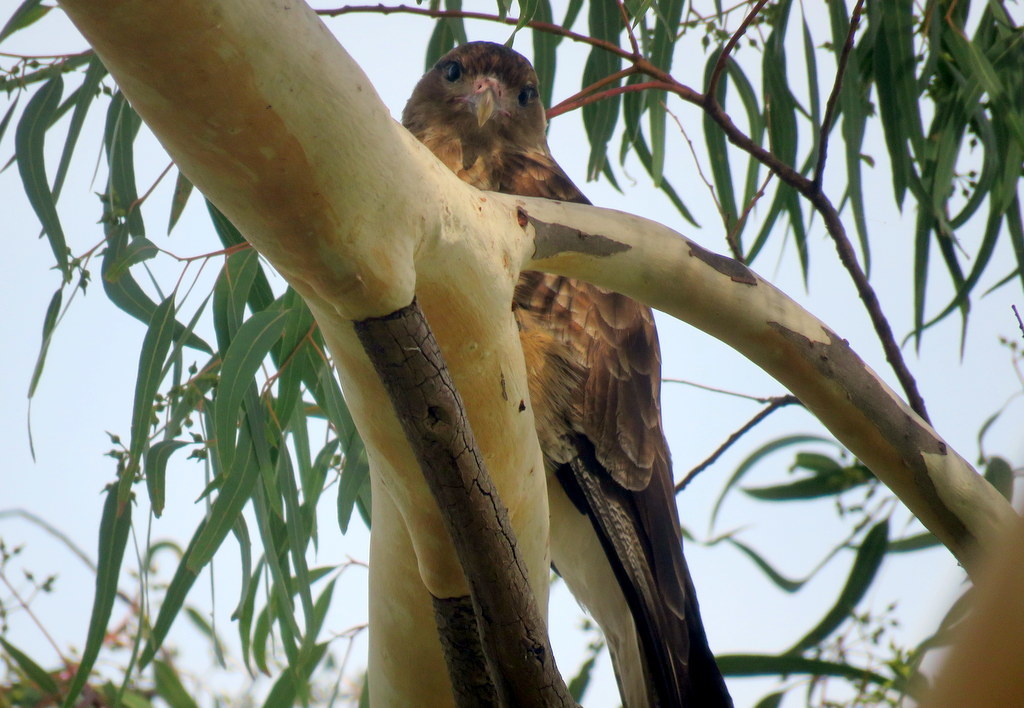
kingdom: Animalia
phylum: Chordata
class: Aves
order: Falconiformes
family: Falconidae
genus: Daptrius
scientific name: Daptrius
